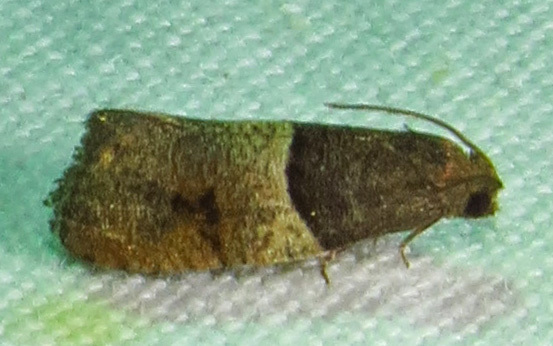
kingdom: Animalia
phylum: Arthropoda
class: Insecta
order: Lepidoptera
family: Tortricidae
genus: Larisa
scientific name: Larisa subsolana
